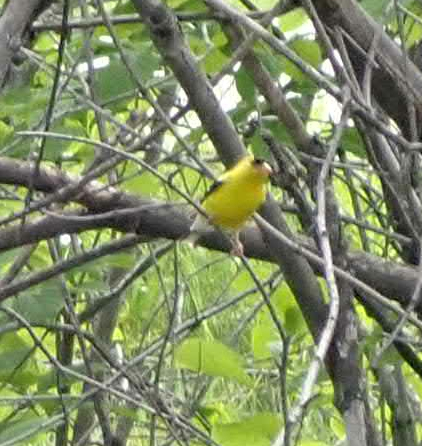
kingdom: Animalia
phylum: Chordata
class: Aves
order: Passeriformes
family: Fringillidae
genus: Spinus
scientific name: Spinus tristis
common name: American goldfinch
